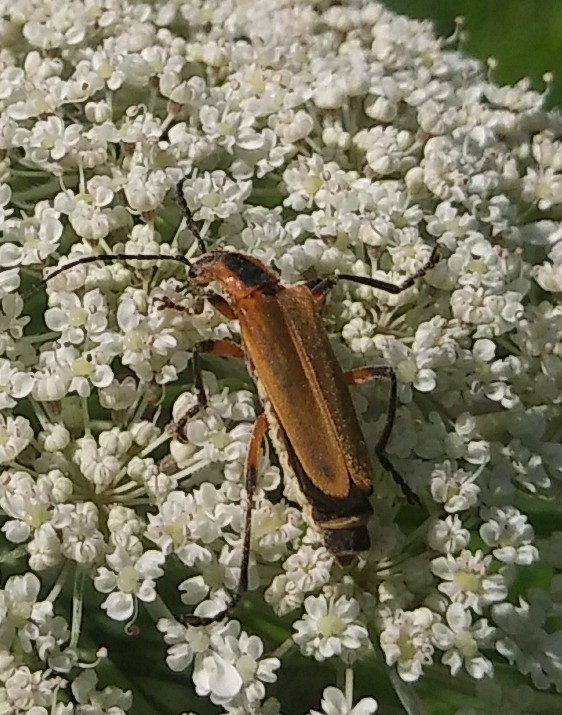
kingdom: Animalia
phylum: Arthropoda
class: Insecta
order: Coleoptera
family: Cantharidae
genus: Chauliognathus
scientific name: Chauliognathus marginatus
